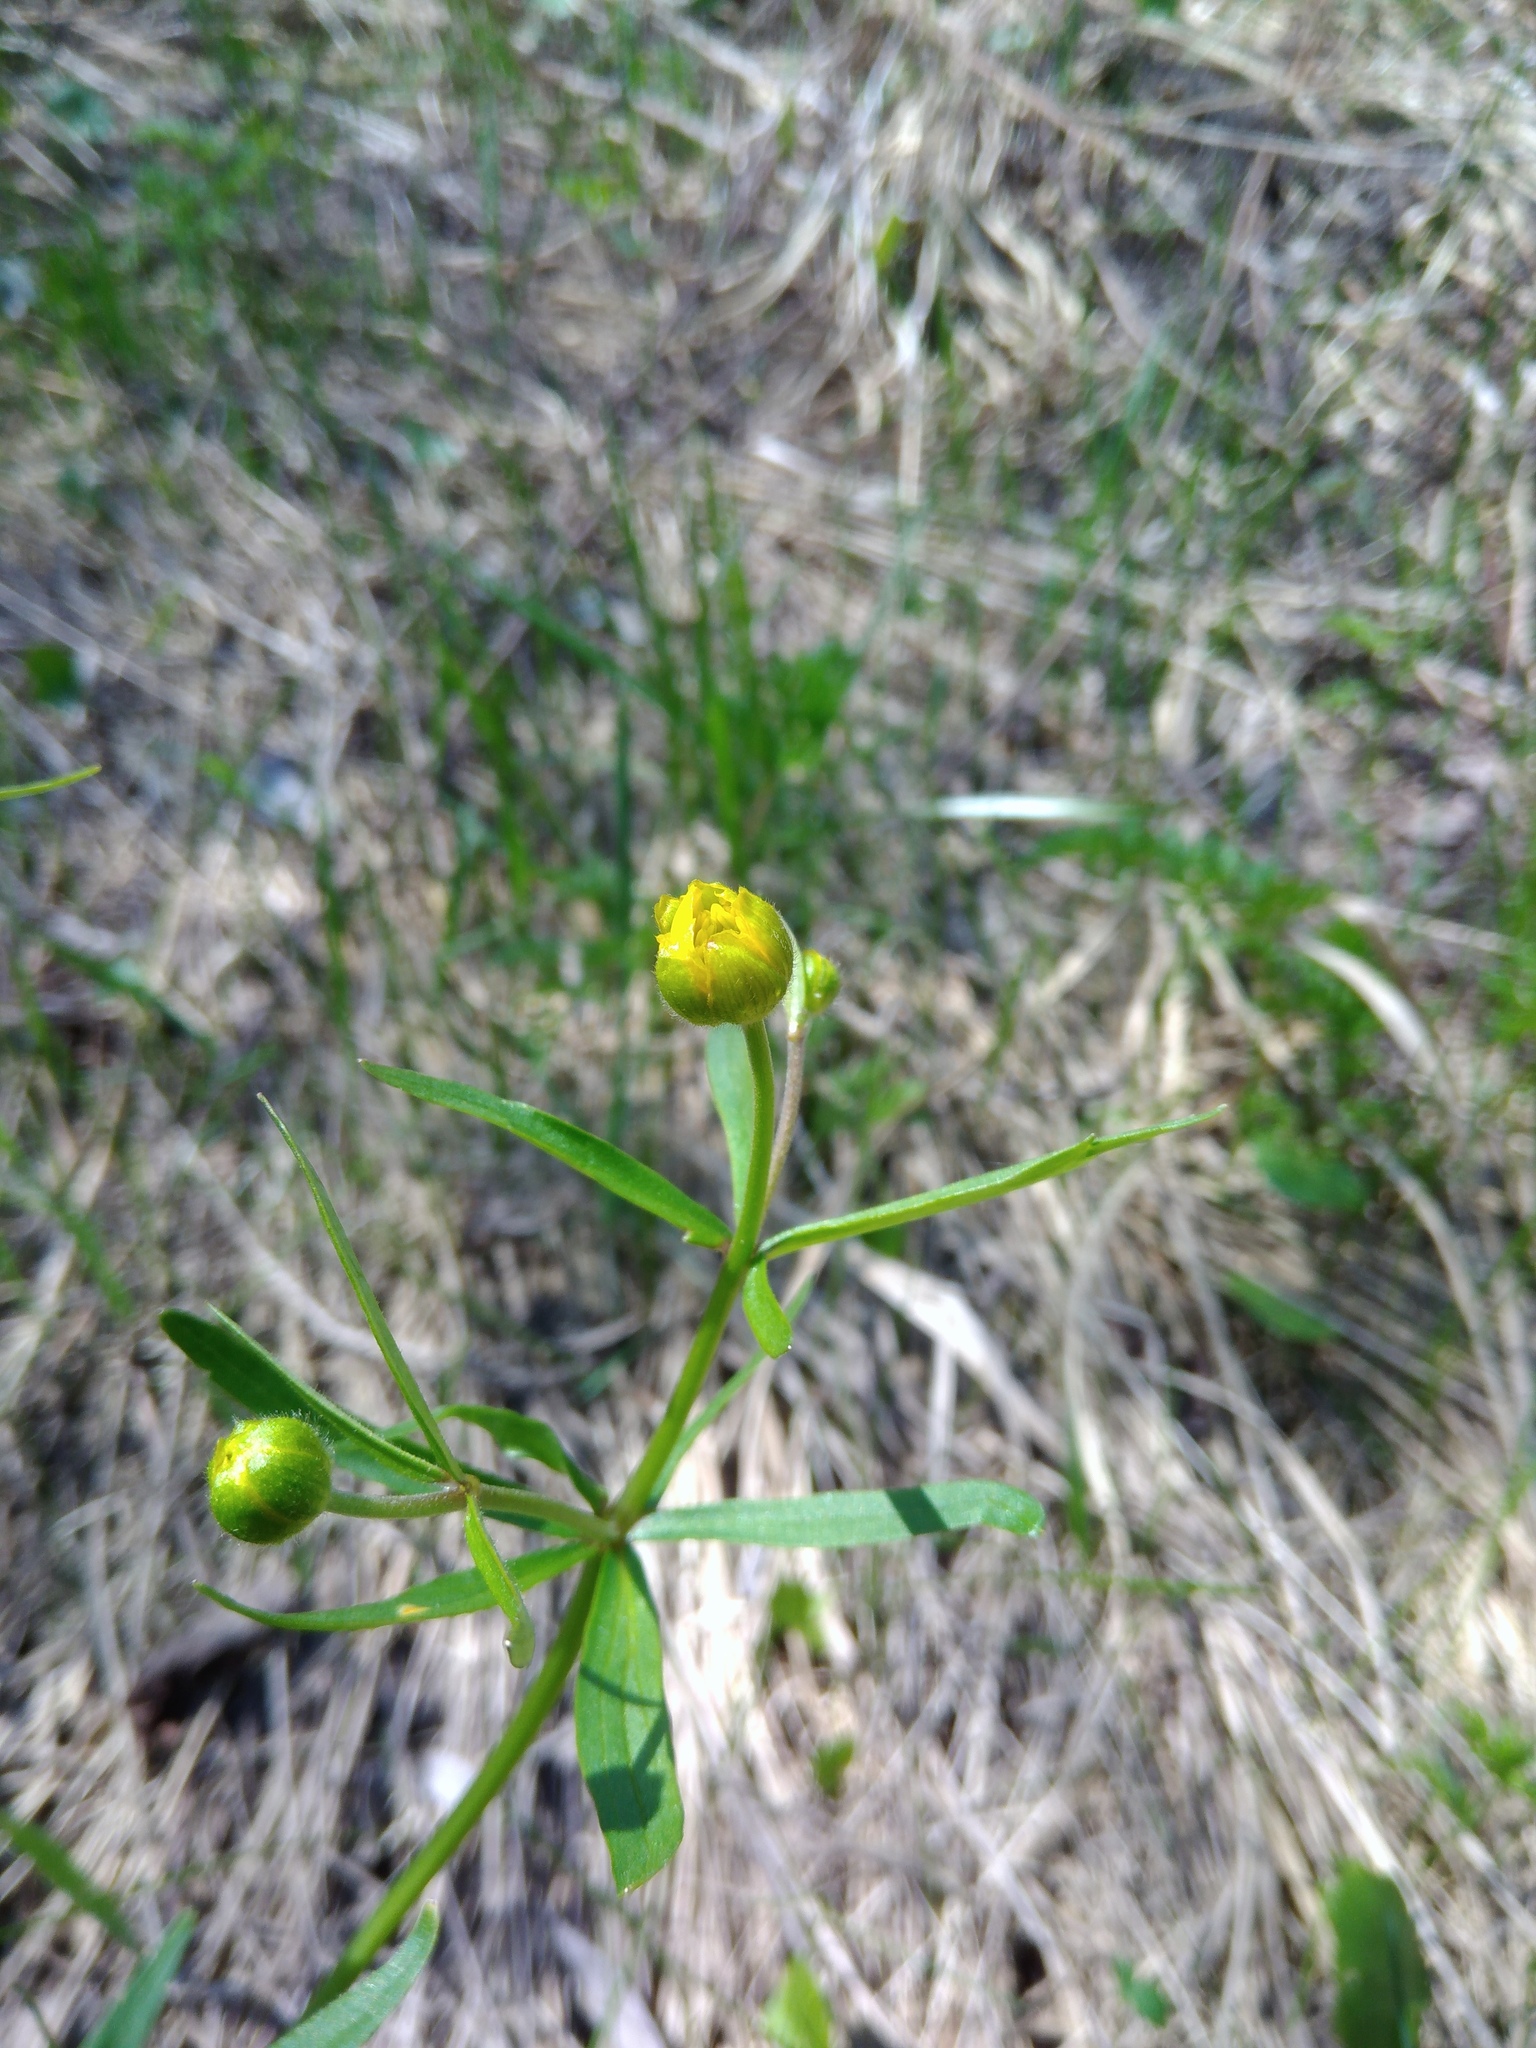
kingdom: Plantae
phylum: Tracheophyta
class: Magnoliopsida
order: Ranunculales
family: Ranunculaceae
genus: Ranunculus
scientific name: Ranunculus auricomus
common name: Goldilocks buttercup
